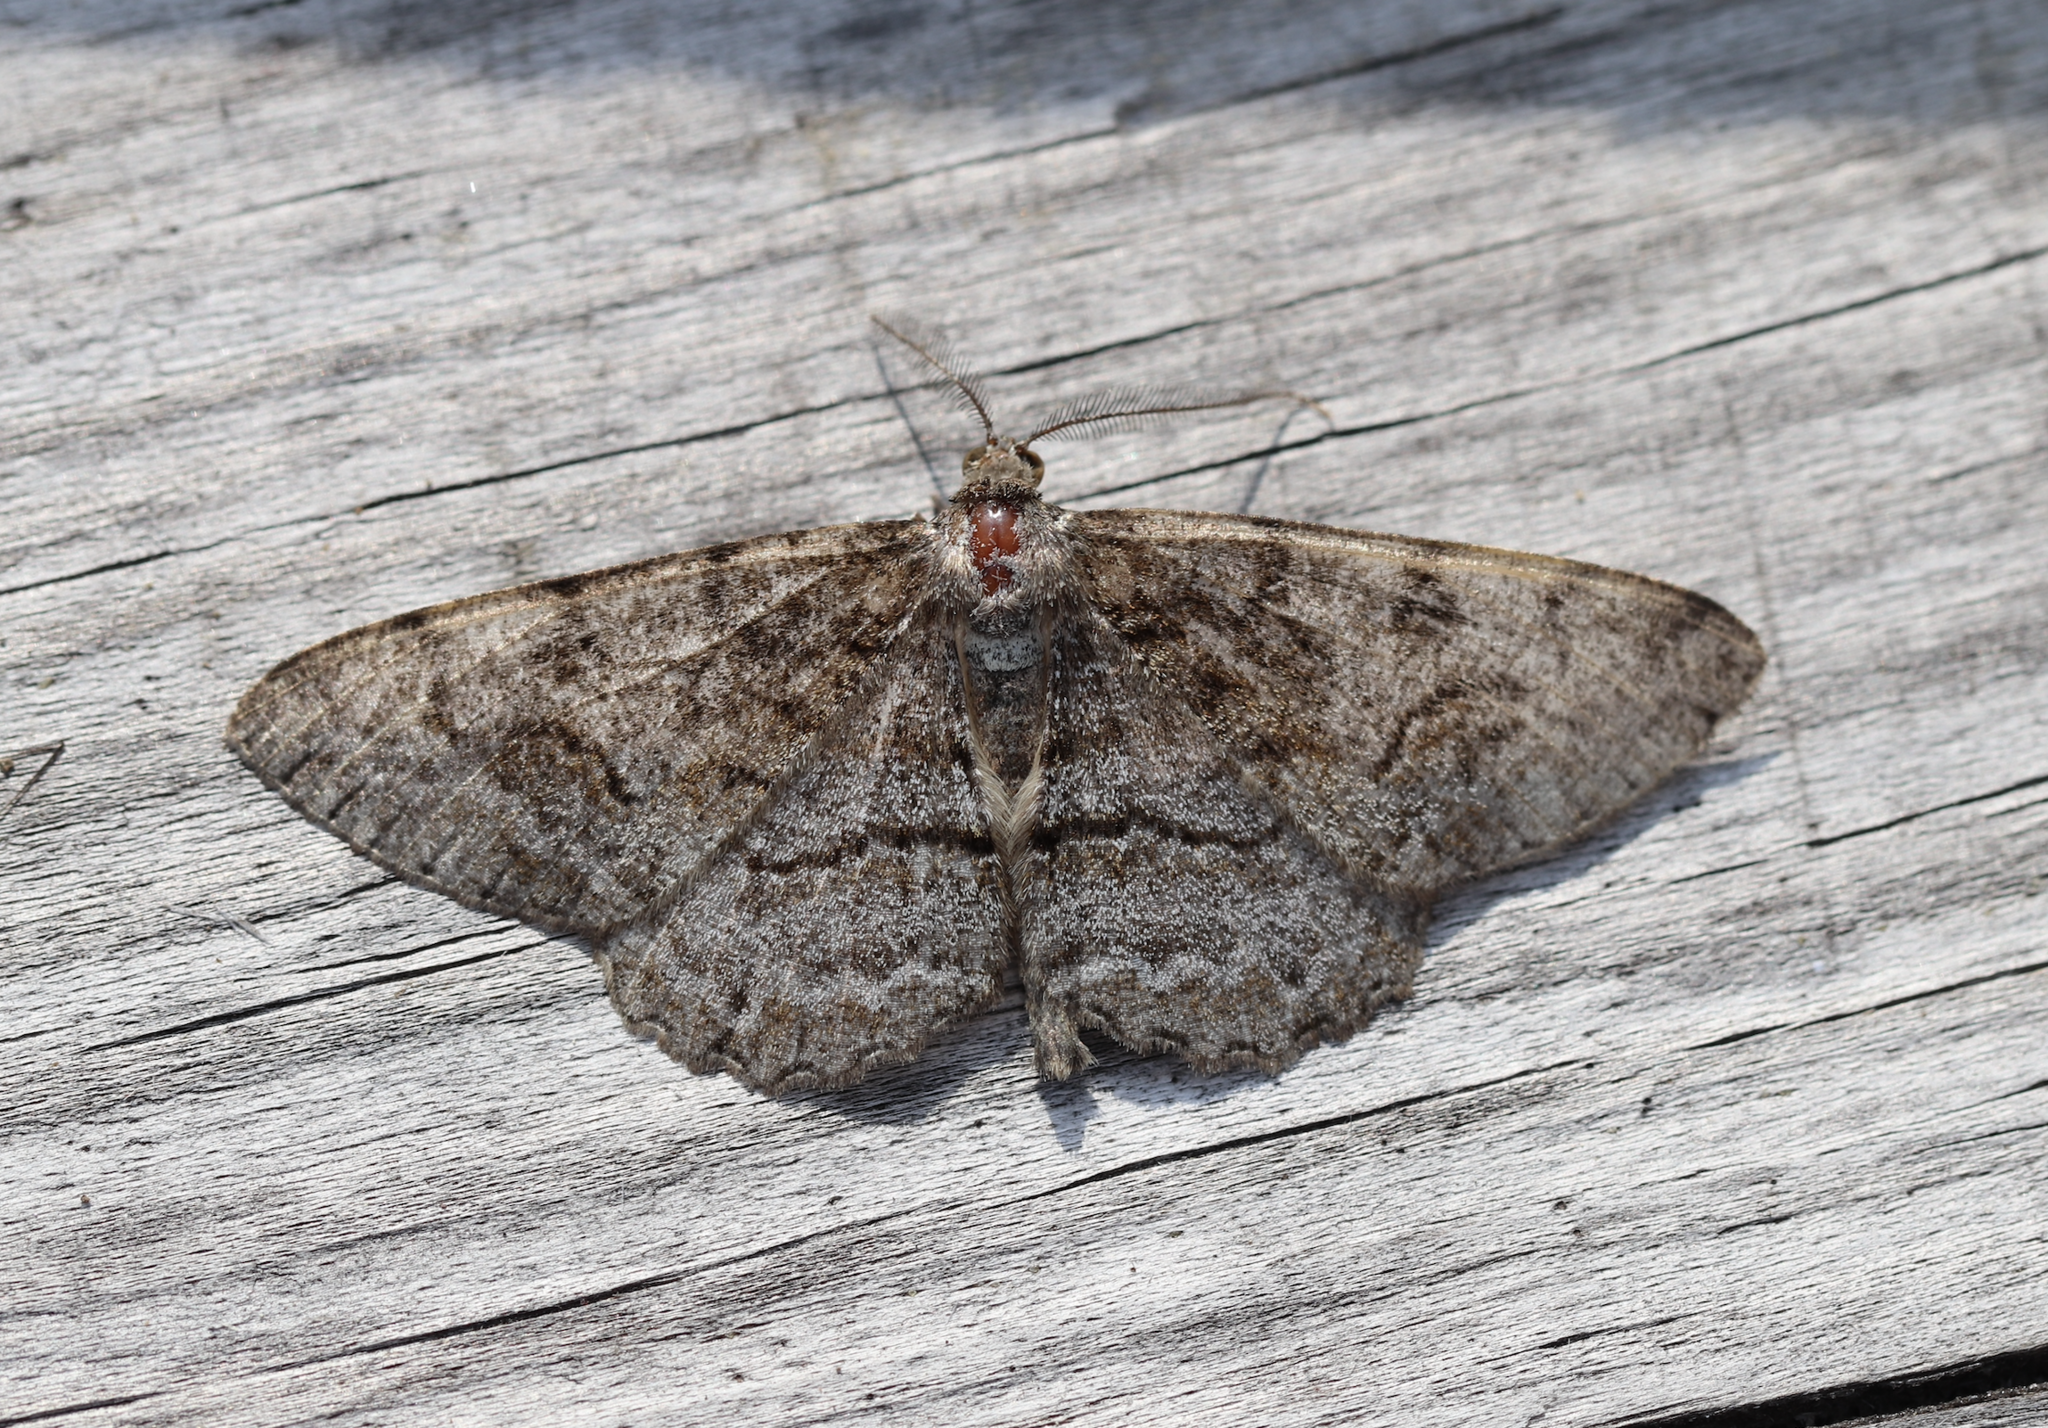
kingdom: Animalia
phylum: Arthropoda
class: Insecta
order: Lepidoptera
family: Geometridae
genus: Alcis
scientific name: Alcis repandata
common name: Mottled beauty
